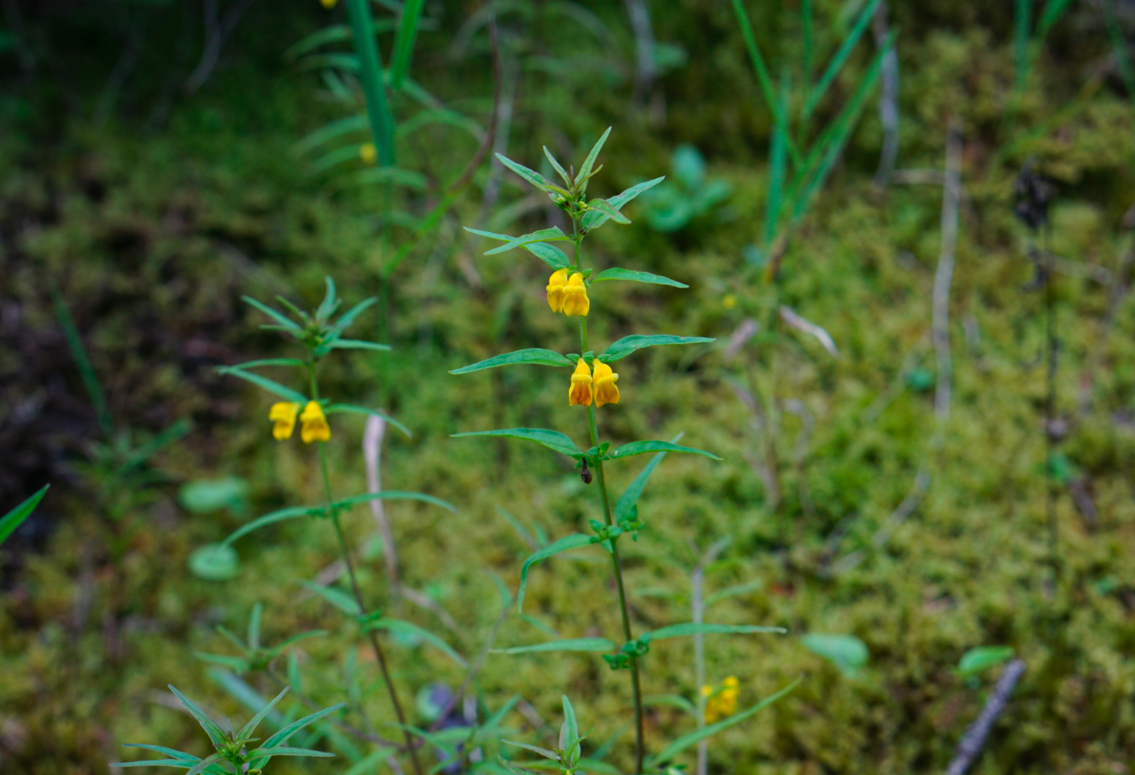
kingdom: Plantae
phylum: Tracheophyta
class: Magnoliopsida
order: Lamiales
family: Orobanchaceae
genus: Melampyrum
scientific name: Melampyrum sylvaticum
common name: Small cow-wheat
